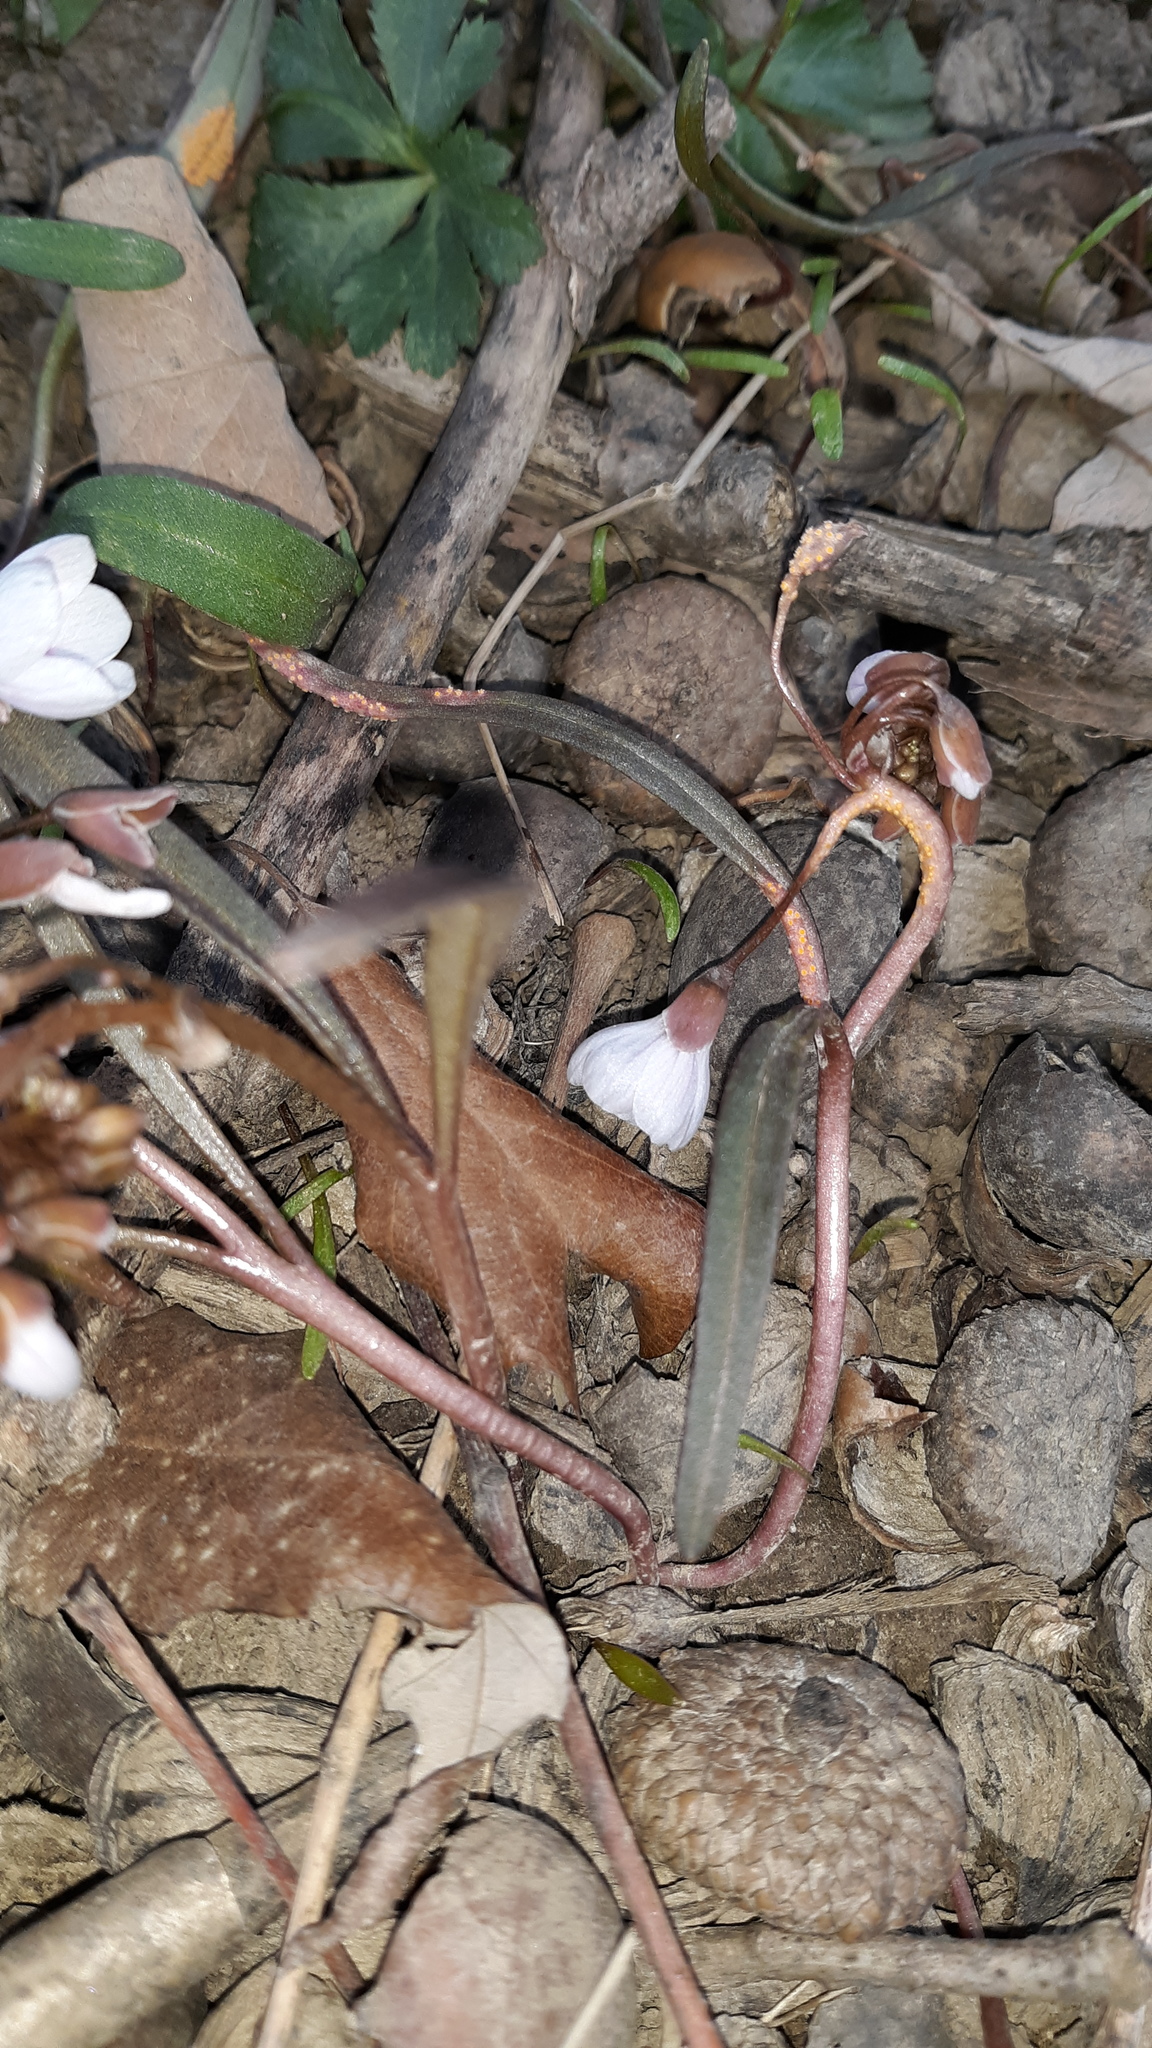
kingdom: Fungi
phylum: Basidiomycota
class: Pucciniomycetes
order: Pucciniales
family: Pucciniaceae
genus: Puccinia
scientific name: Puccinia mariae-wilsoniae
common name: Spring beauty rust
